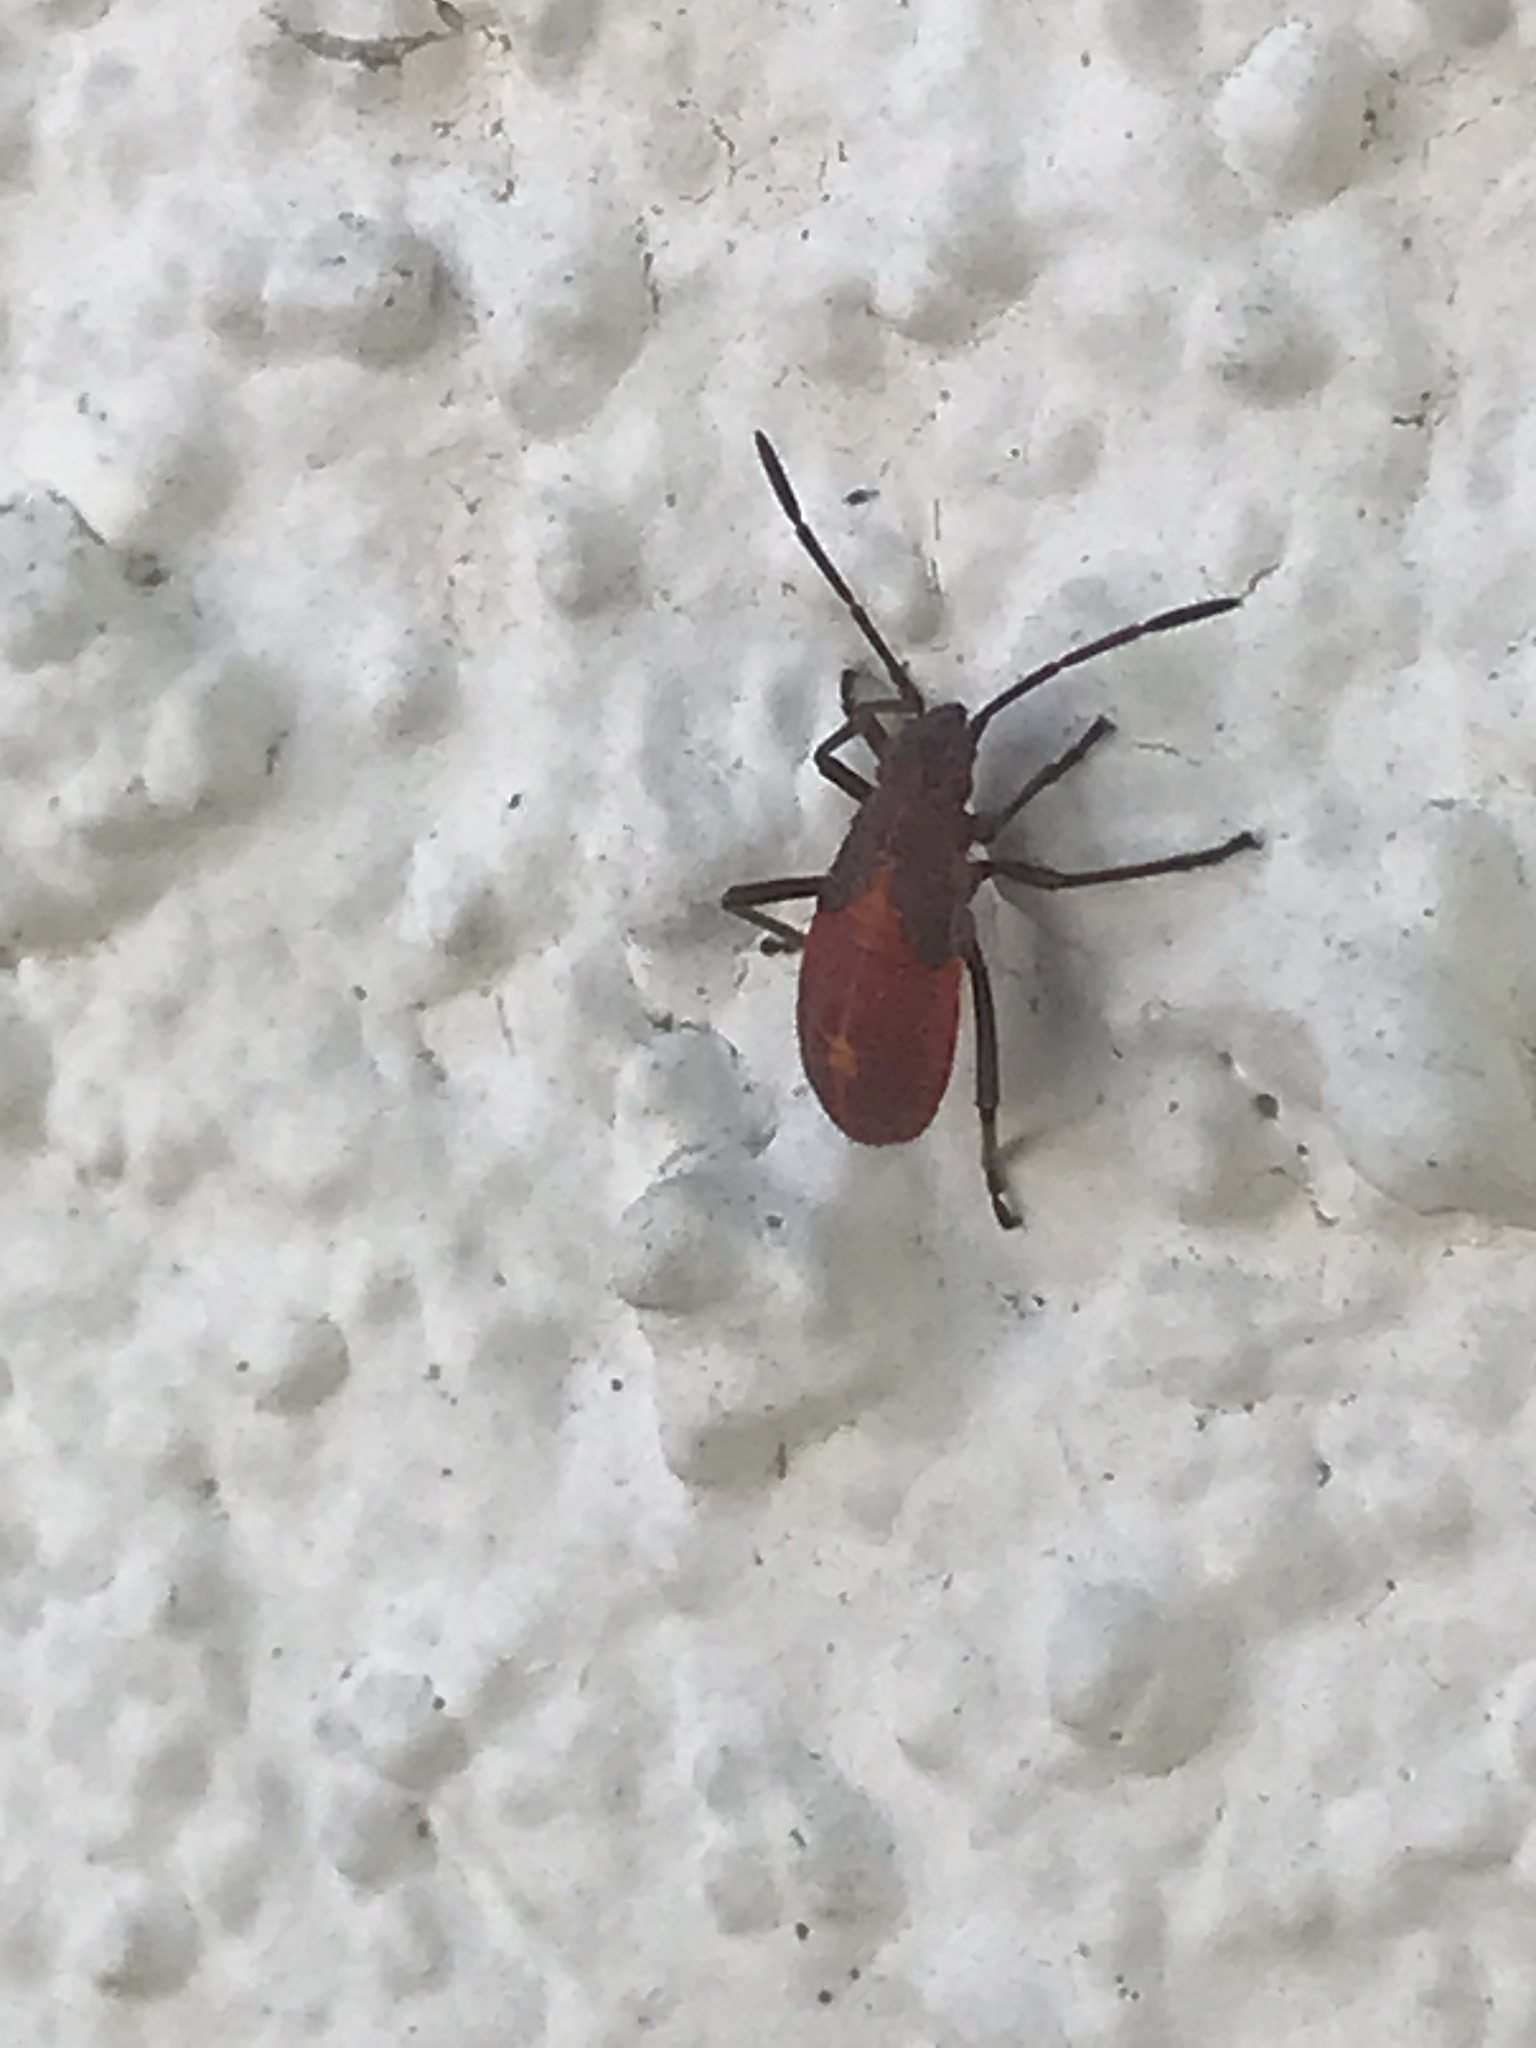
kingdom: Animalia
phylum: Arthropoda
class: Insecta
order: Hemiptera
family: Rhopalidae
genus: Boisea
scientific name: Boisea trivittata
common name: Boxelder bug
